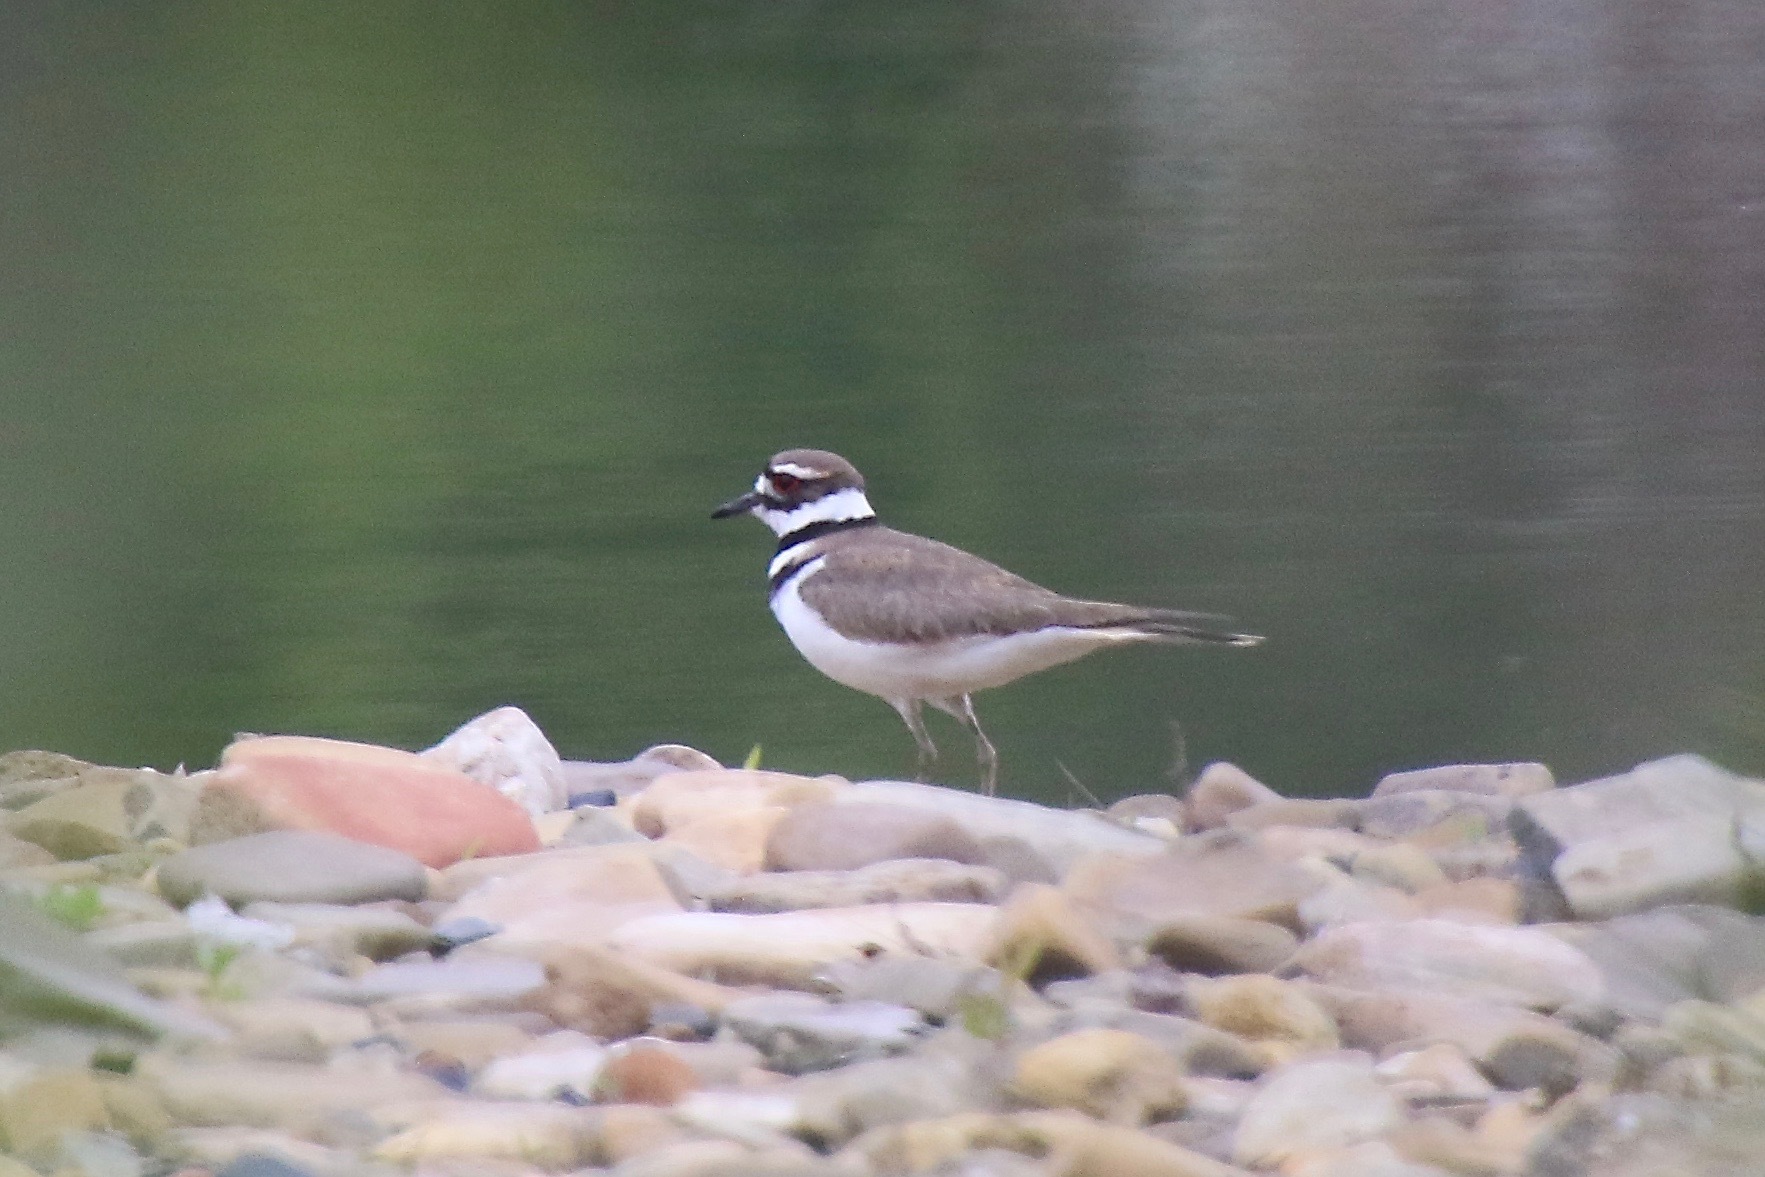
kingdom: Animalia
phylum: Chordata
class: Aves
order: Charadriiformes
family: Charadriidae
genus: Charadrius
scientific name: Charadrius vociferus
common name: Killdeer
